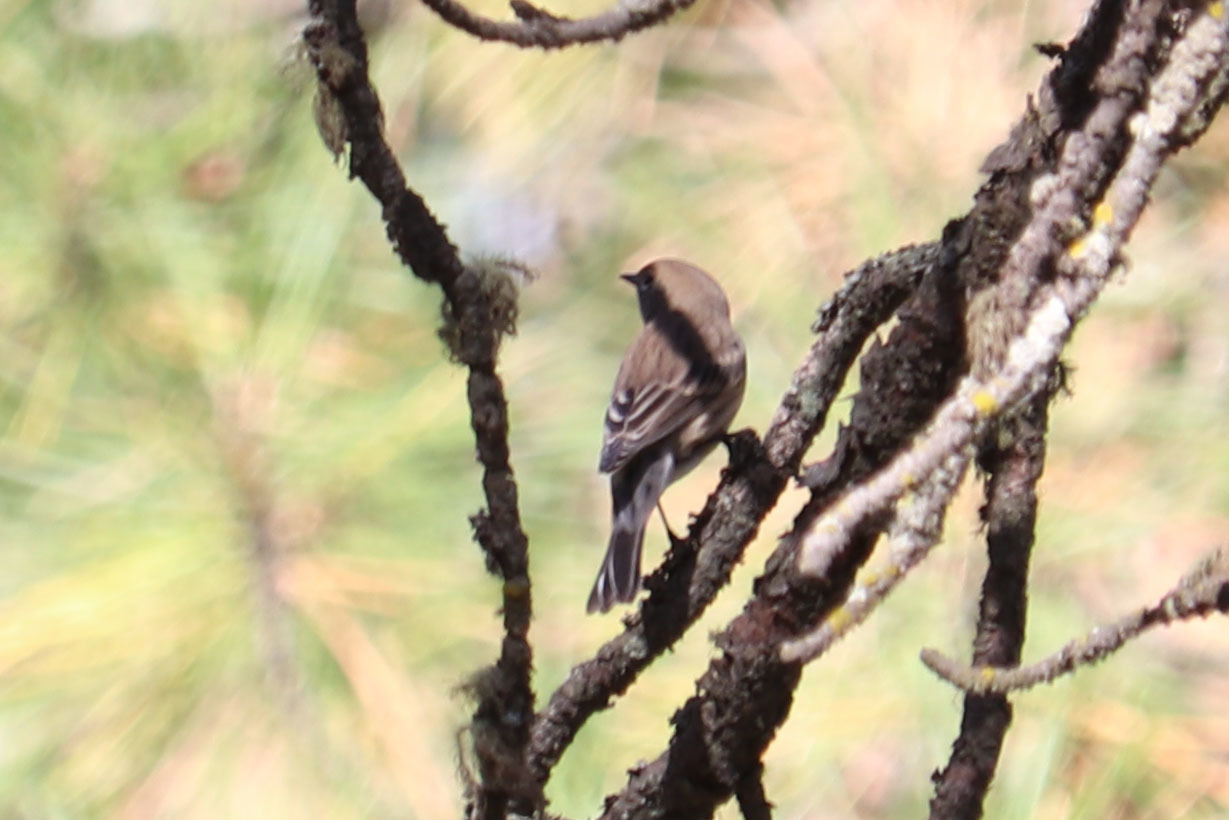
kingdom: Animalia
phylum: Chordata
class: Aves
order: Passeriformes
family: Parulidae
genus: Setophaga
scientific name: Setophaga coronata
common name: Myrtle warbler
